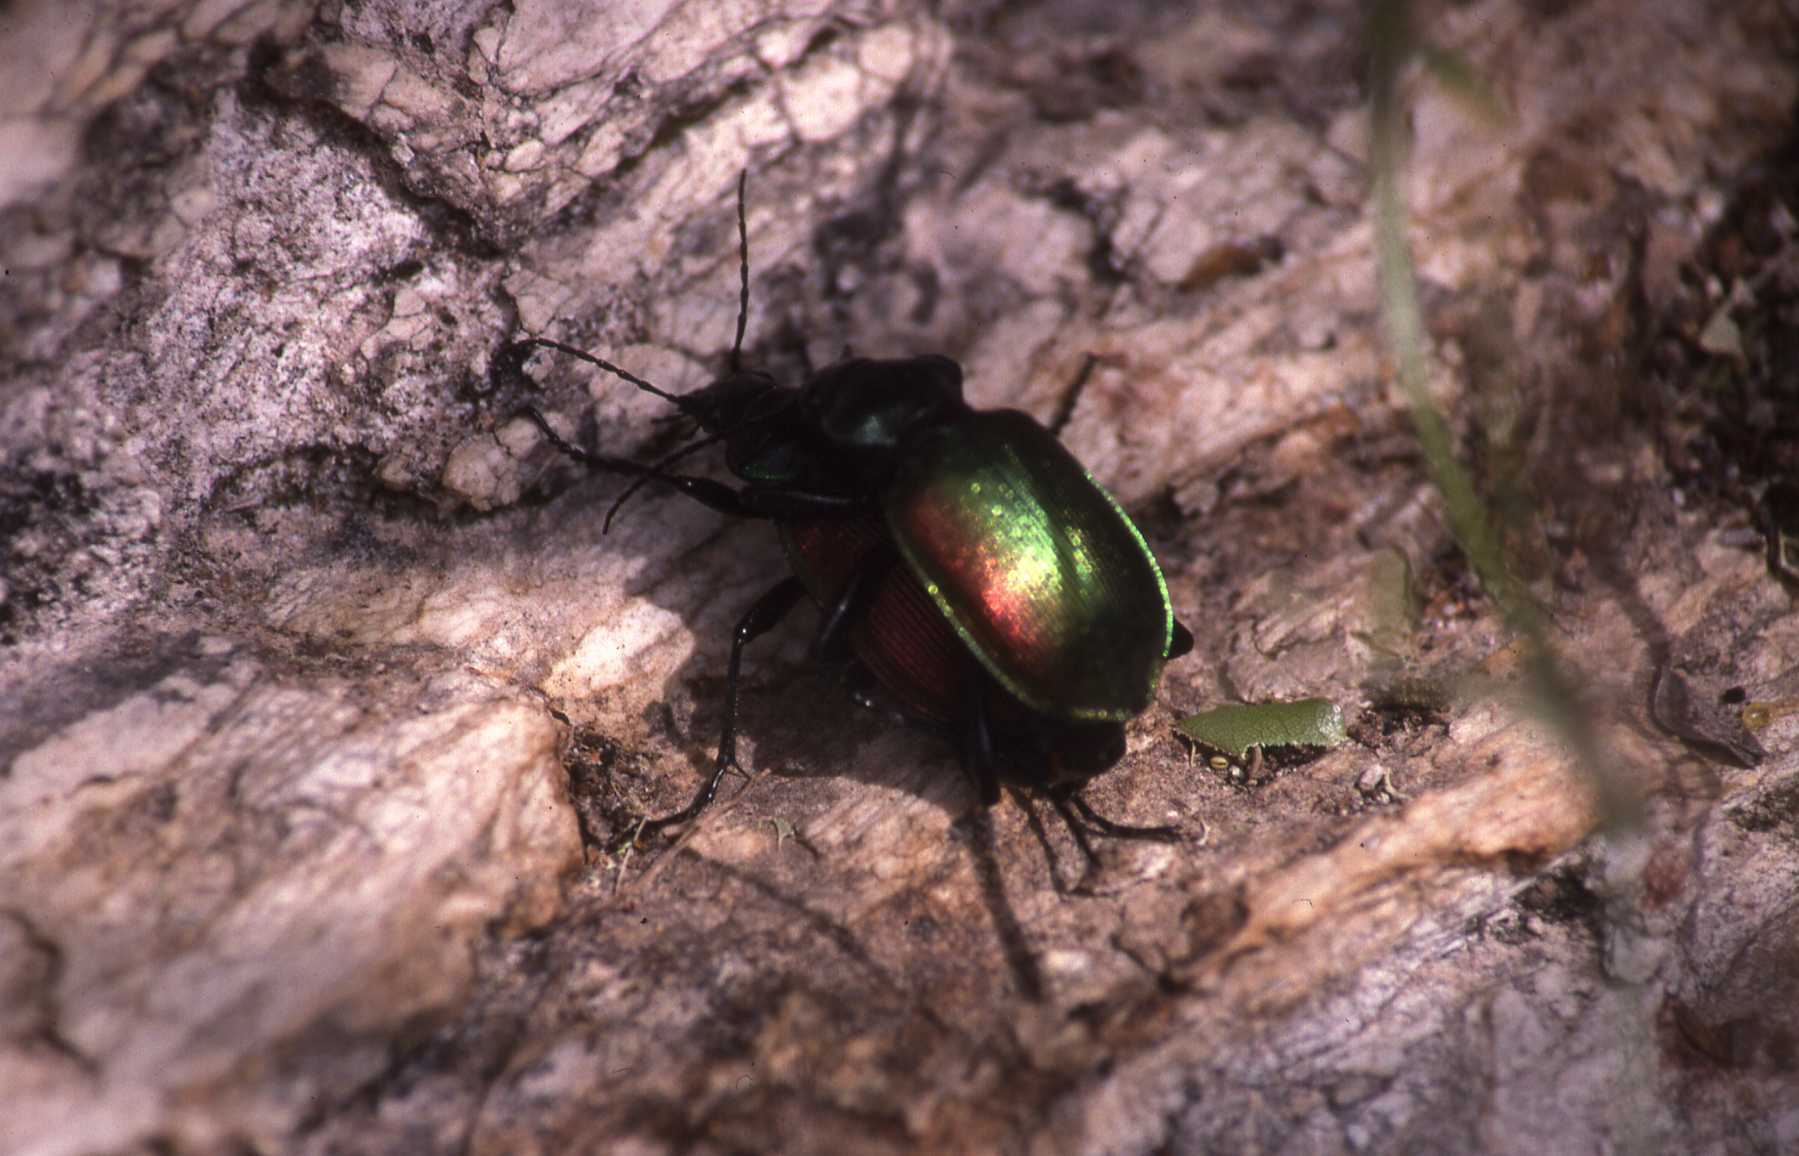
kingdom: Animalia
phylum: Arthropoda
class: Insecta
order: Coleoptera
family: Carabidae
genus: Calosoma
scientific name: Calosoma sycophanta
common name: Forest caterpillar hunter
